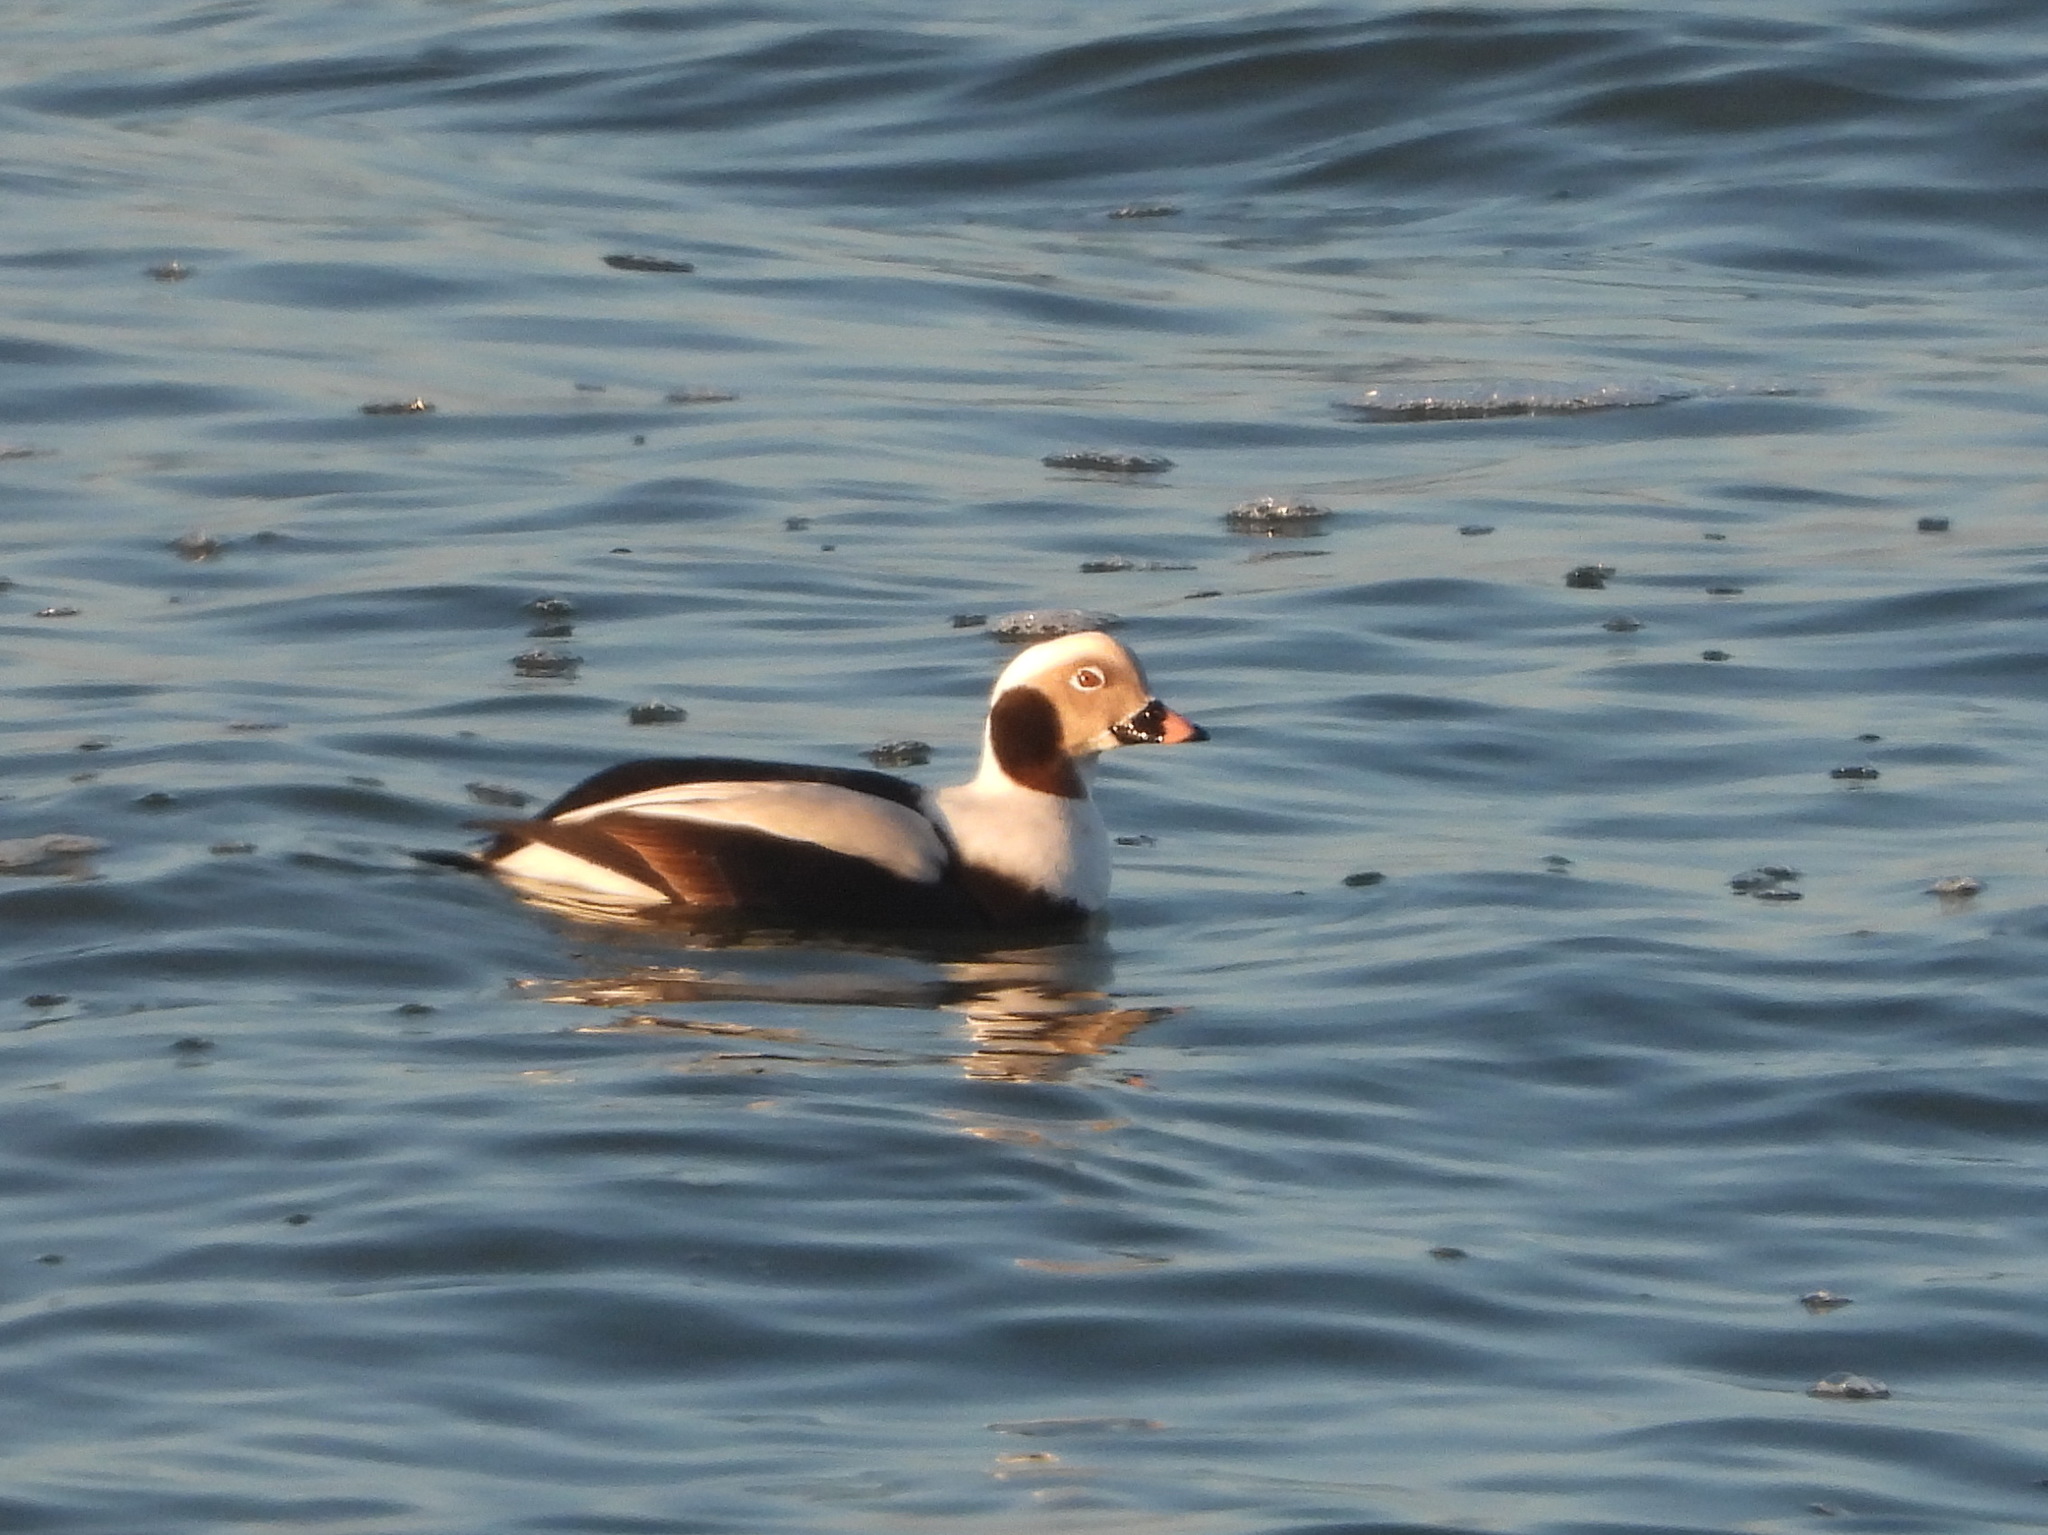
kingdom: Animalia
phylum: Chordata
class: Aves
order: Anseriformes
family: Anatidae
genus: Clangula
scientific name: Clangula hyemalis
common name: Long-tailed duck
